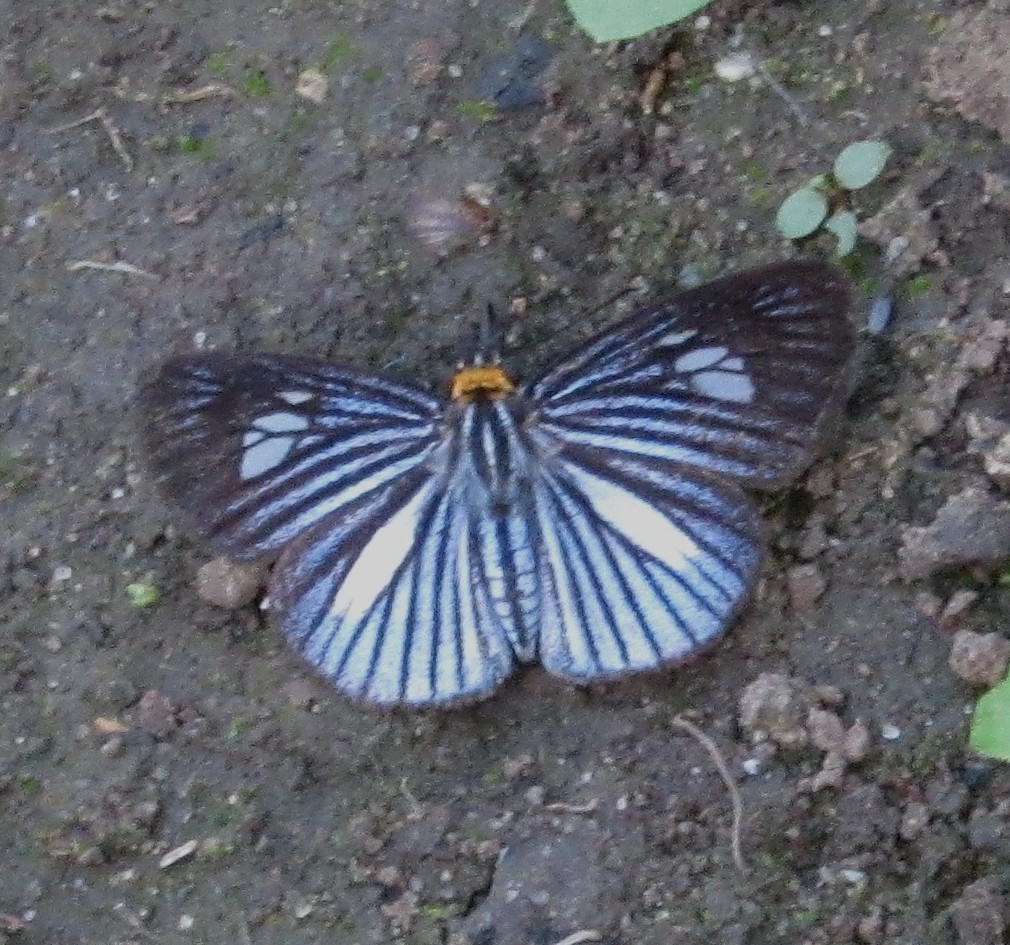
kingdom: Animalia
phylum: Arthropoda
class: Insecta
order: Lepidoptera
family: Hesperiidae
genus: Pythonides
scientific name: Pythonides lancea
